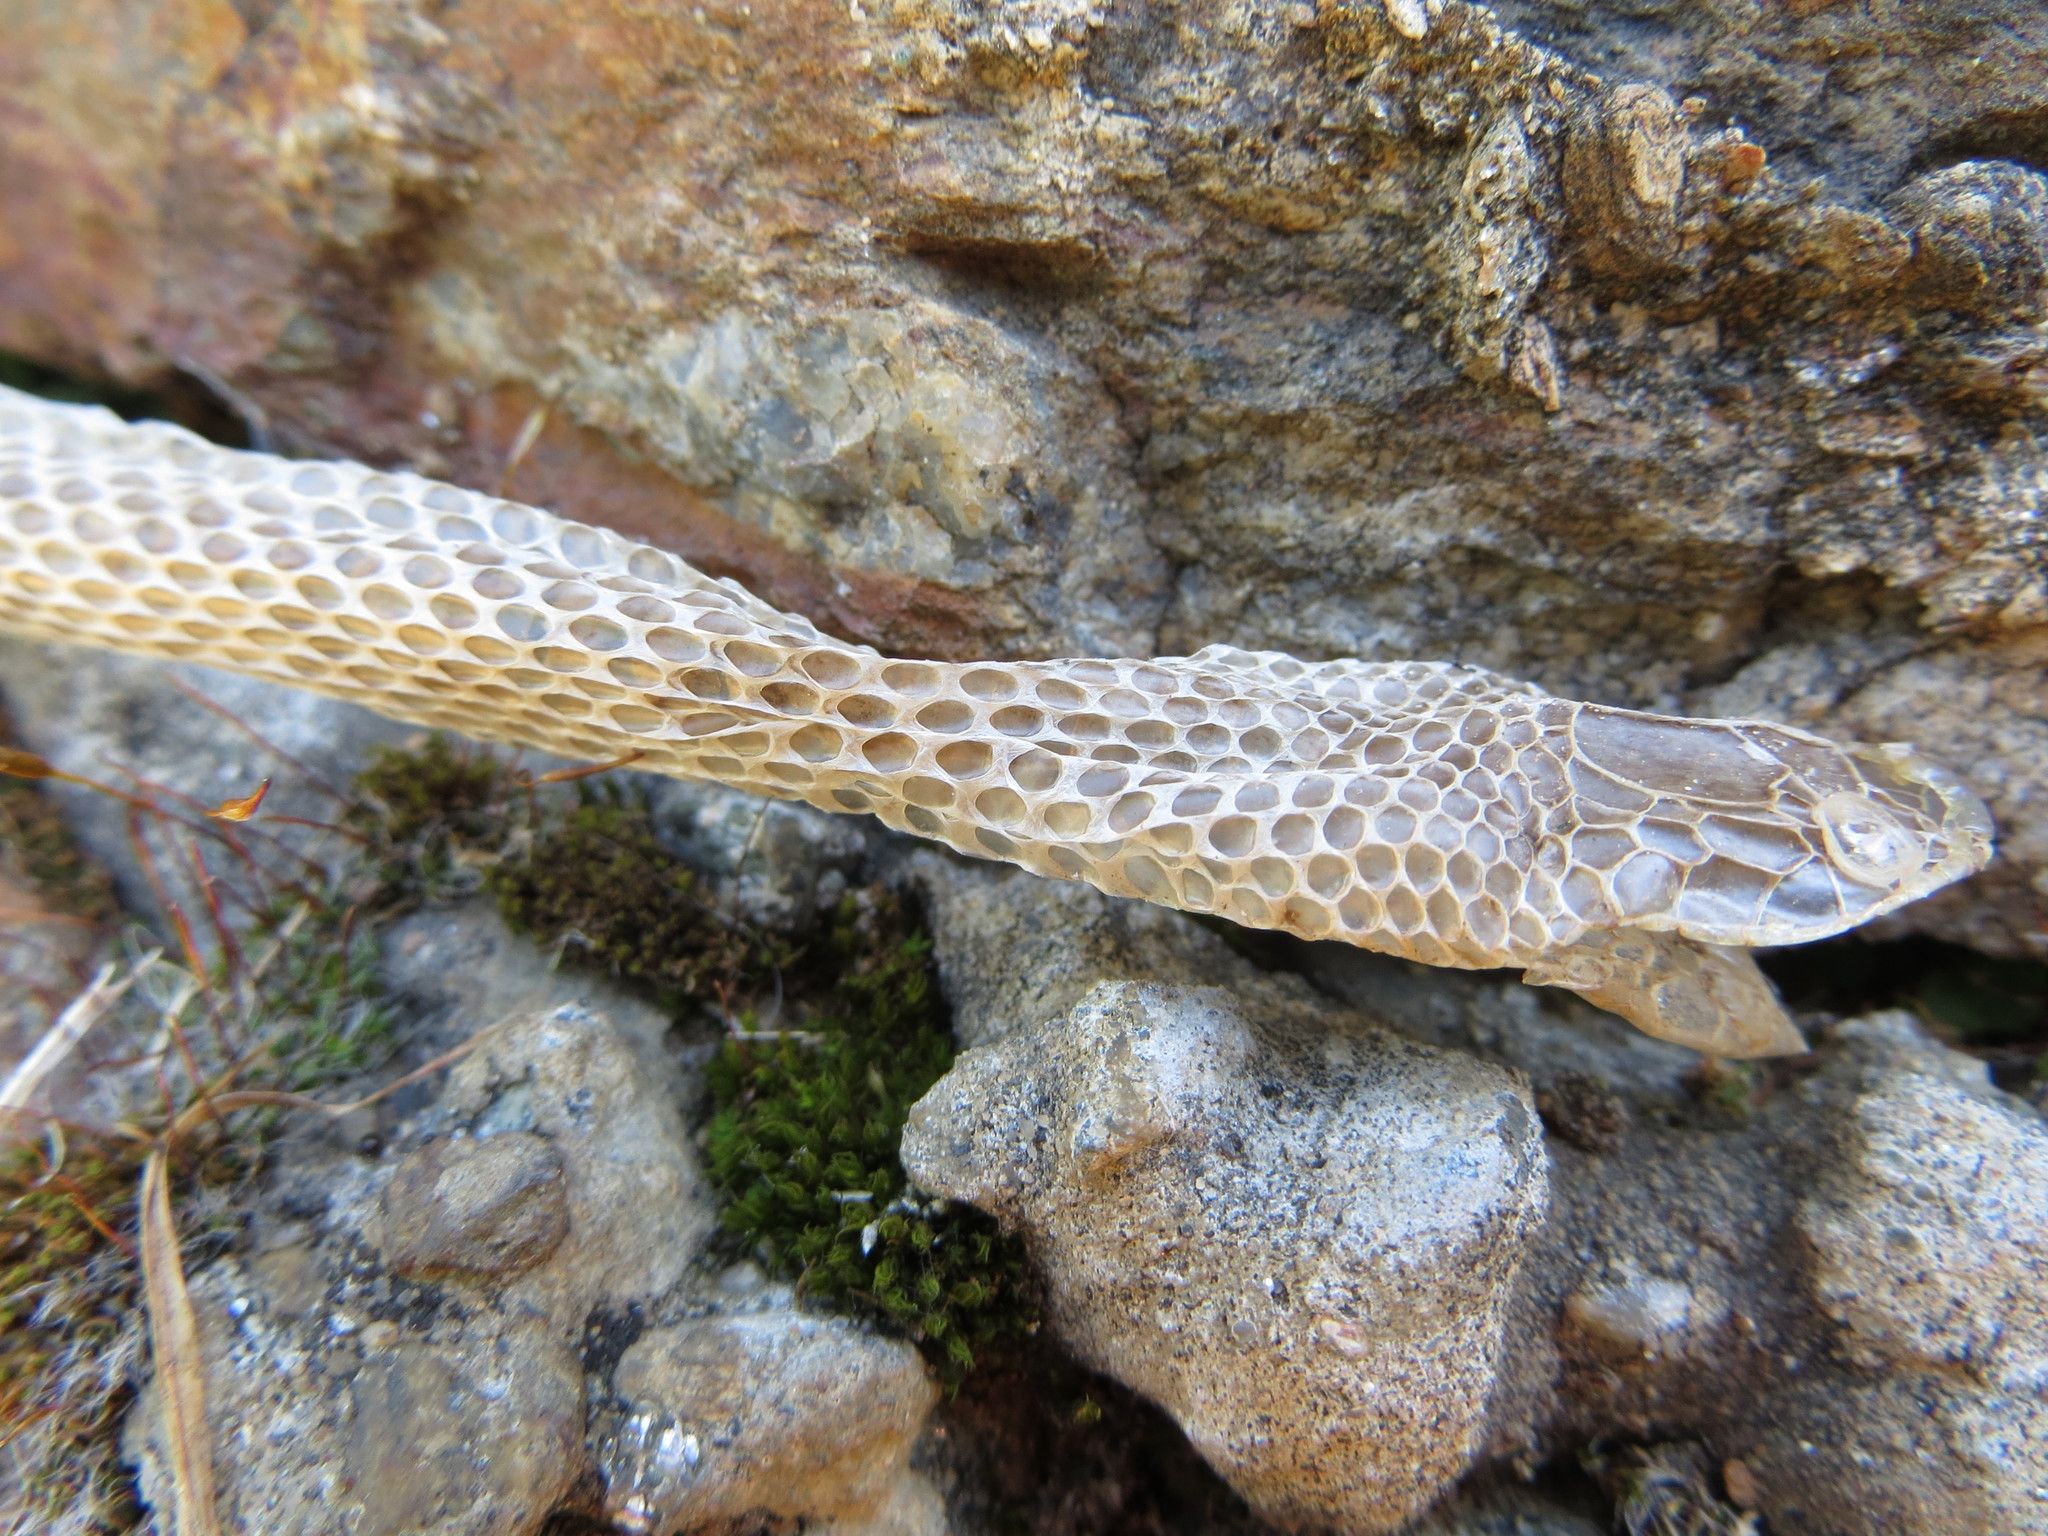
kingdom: Animalia
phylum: Chordata
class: Squamata
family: Colubridae
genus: Hierophis
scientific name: Hierophis viridiflavus
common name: Green whip snake
